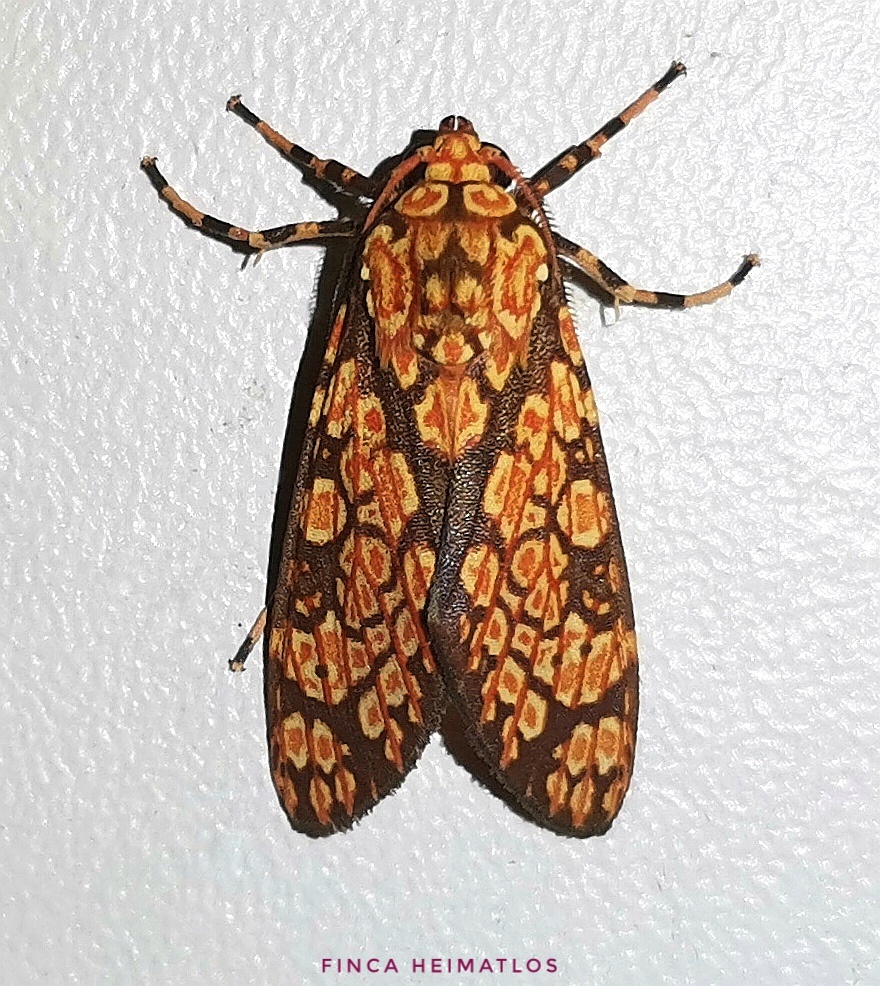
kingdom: Animalia
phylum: Arthropoda
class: Insecta
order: Lepidoptera
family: Erebidae
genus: Cresera
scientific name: Cresera optimus
